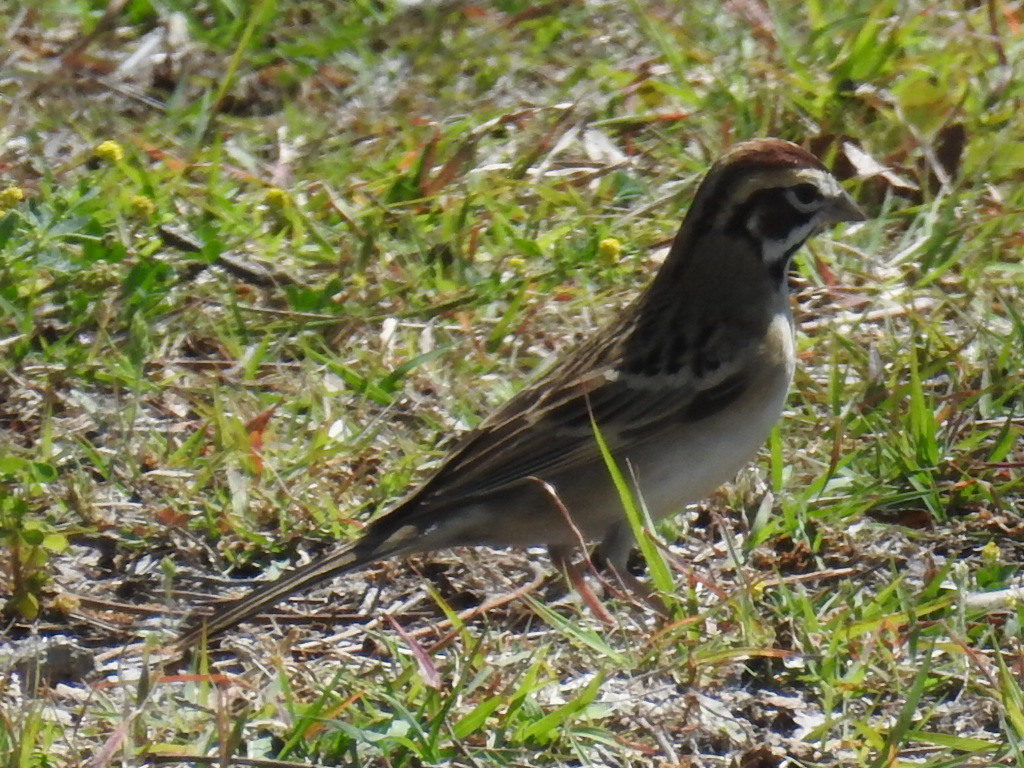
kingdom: Animalia
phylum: Chordata
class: Aves
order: Passeriformes
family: Passerellidae
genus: Chondestes
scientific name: Chondestes grammacus
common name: Lark sparrow
